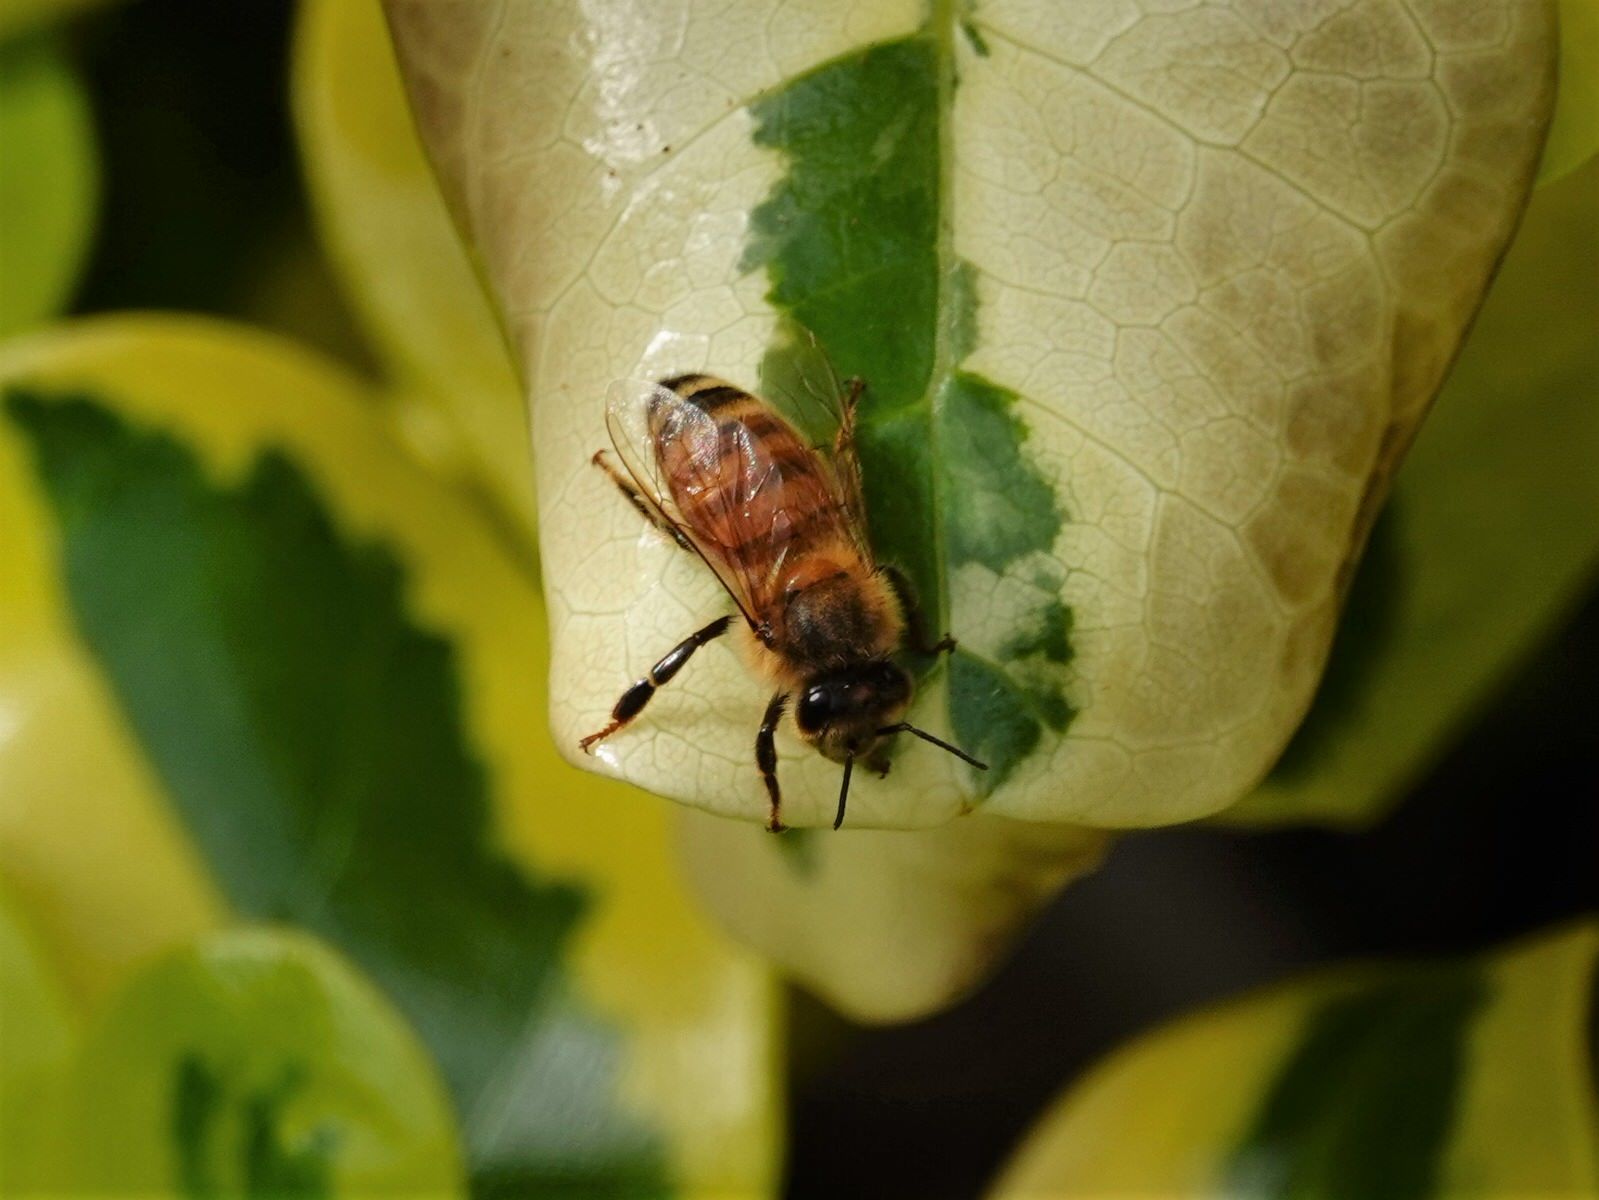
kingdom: Animalia
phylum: Arthropoda
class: Insecta
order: Hymenoptera
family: Apidae
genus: Apis
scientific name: Apis mellifera
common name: Honey bee
